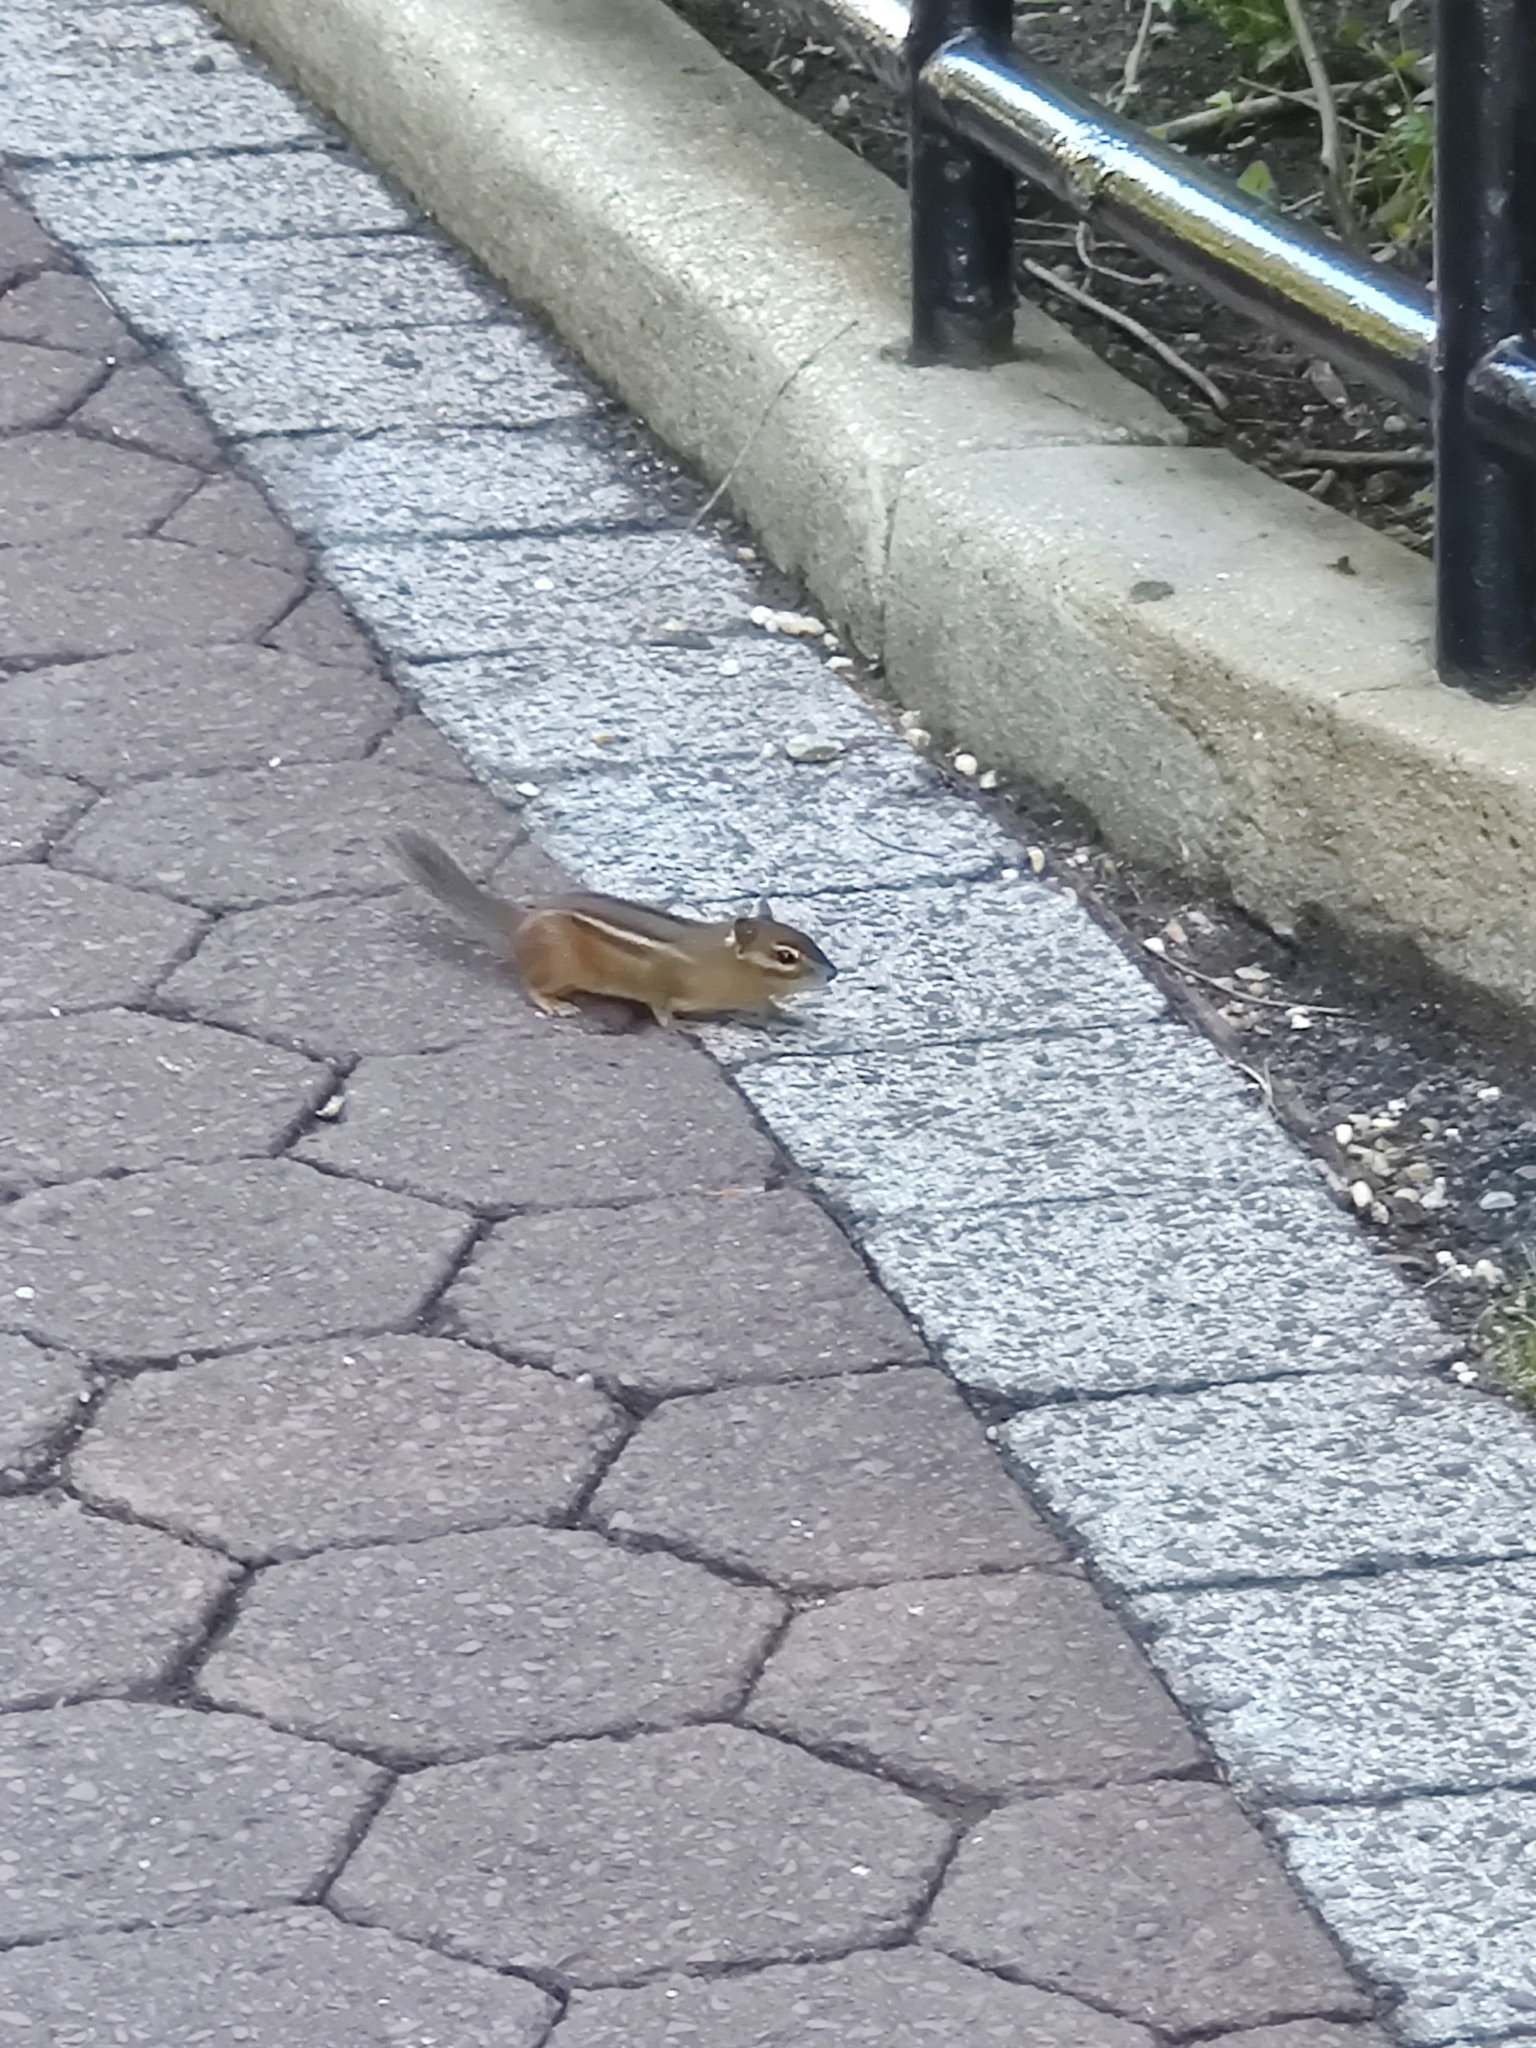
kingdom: Animalia
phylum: Chordata
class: Mammalia
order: Rodentia
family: Sciuridae
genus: Tamias
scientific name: Tamias striatus
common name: Eastern chipmunk
